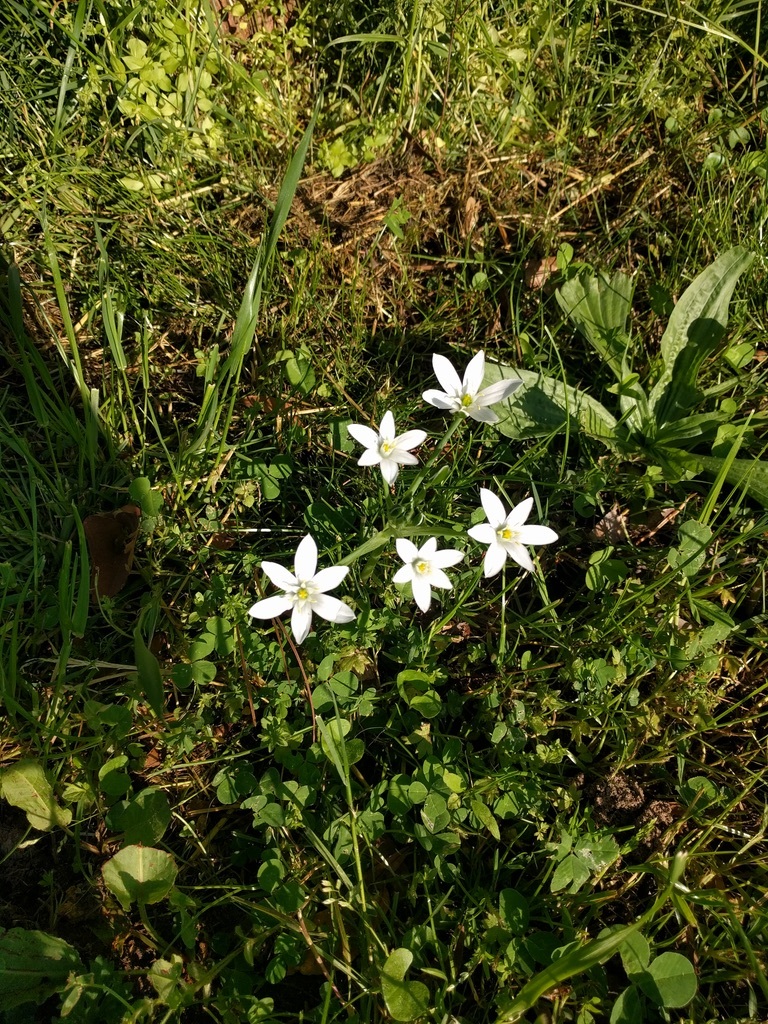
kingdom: Plantae
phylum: Tracheophyta
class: Liliopsida
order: Asparagales
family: Asparagaceae
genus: Ornithogalum
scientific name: Ornithogalum umbellatum
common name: Garden star-of-bethlehem
